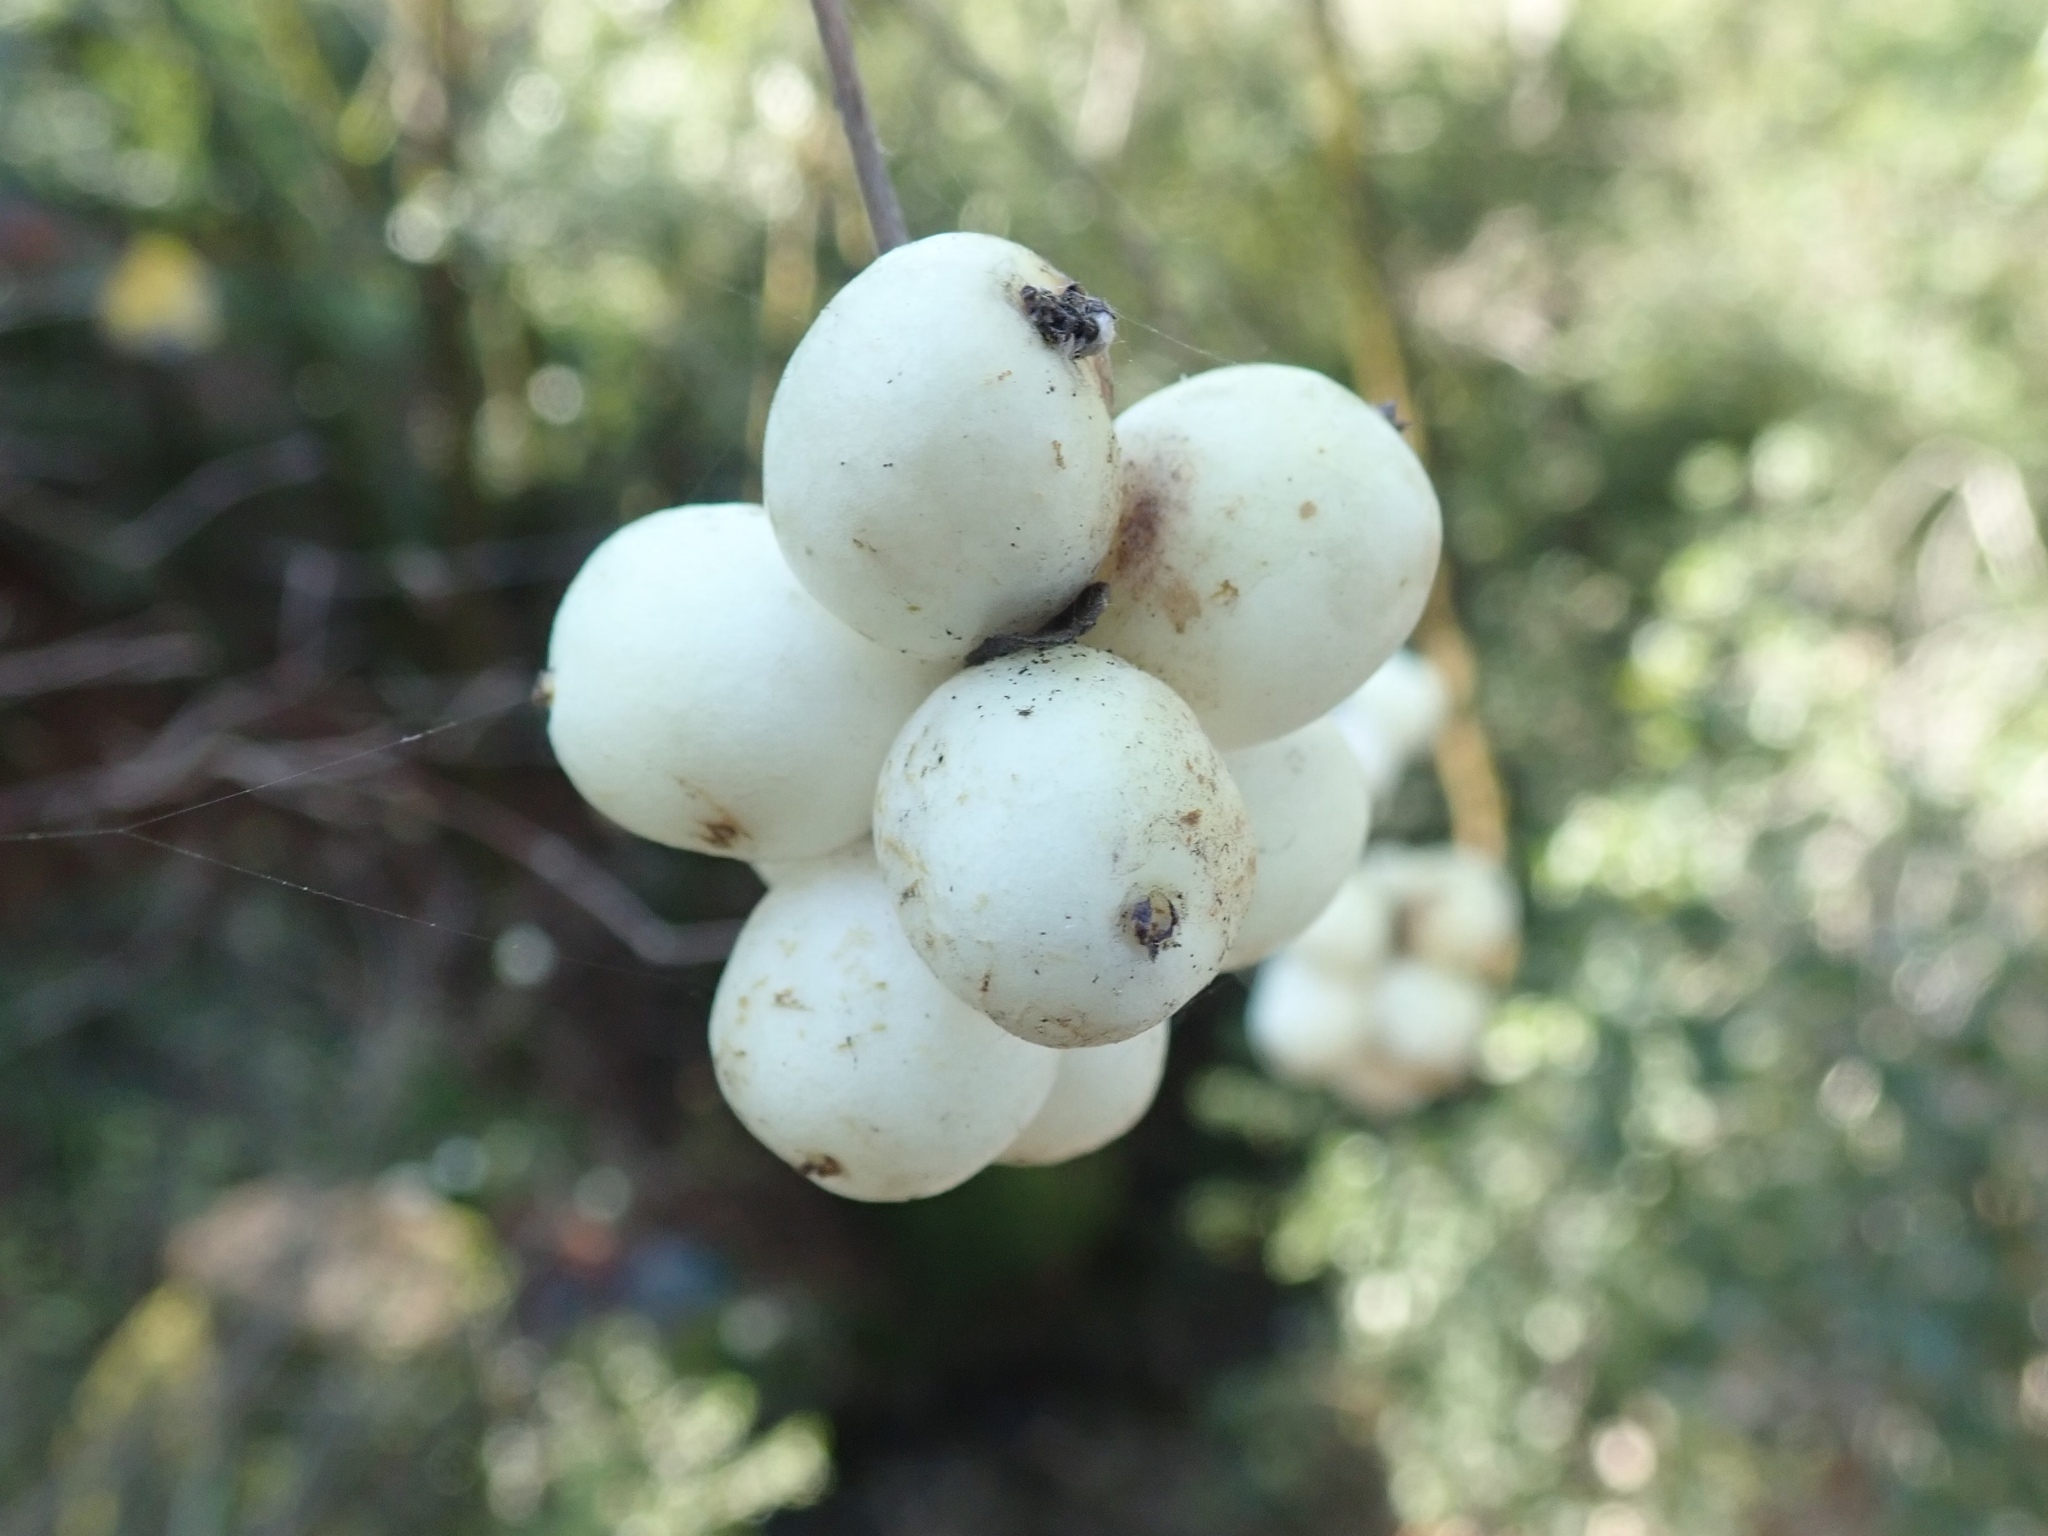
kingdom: Plantae
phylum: Tracheophyta
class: Magnoliopsida
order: Dipsacales
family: Caprifoliaceae
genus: Symphoricarpos
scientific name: Symphoricarpos albus
